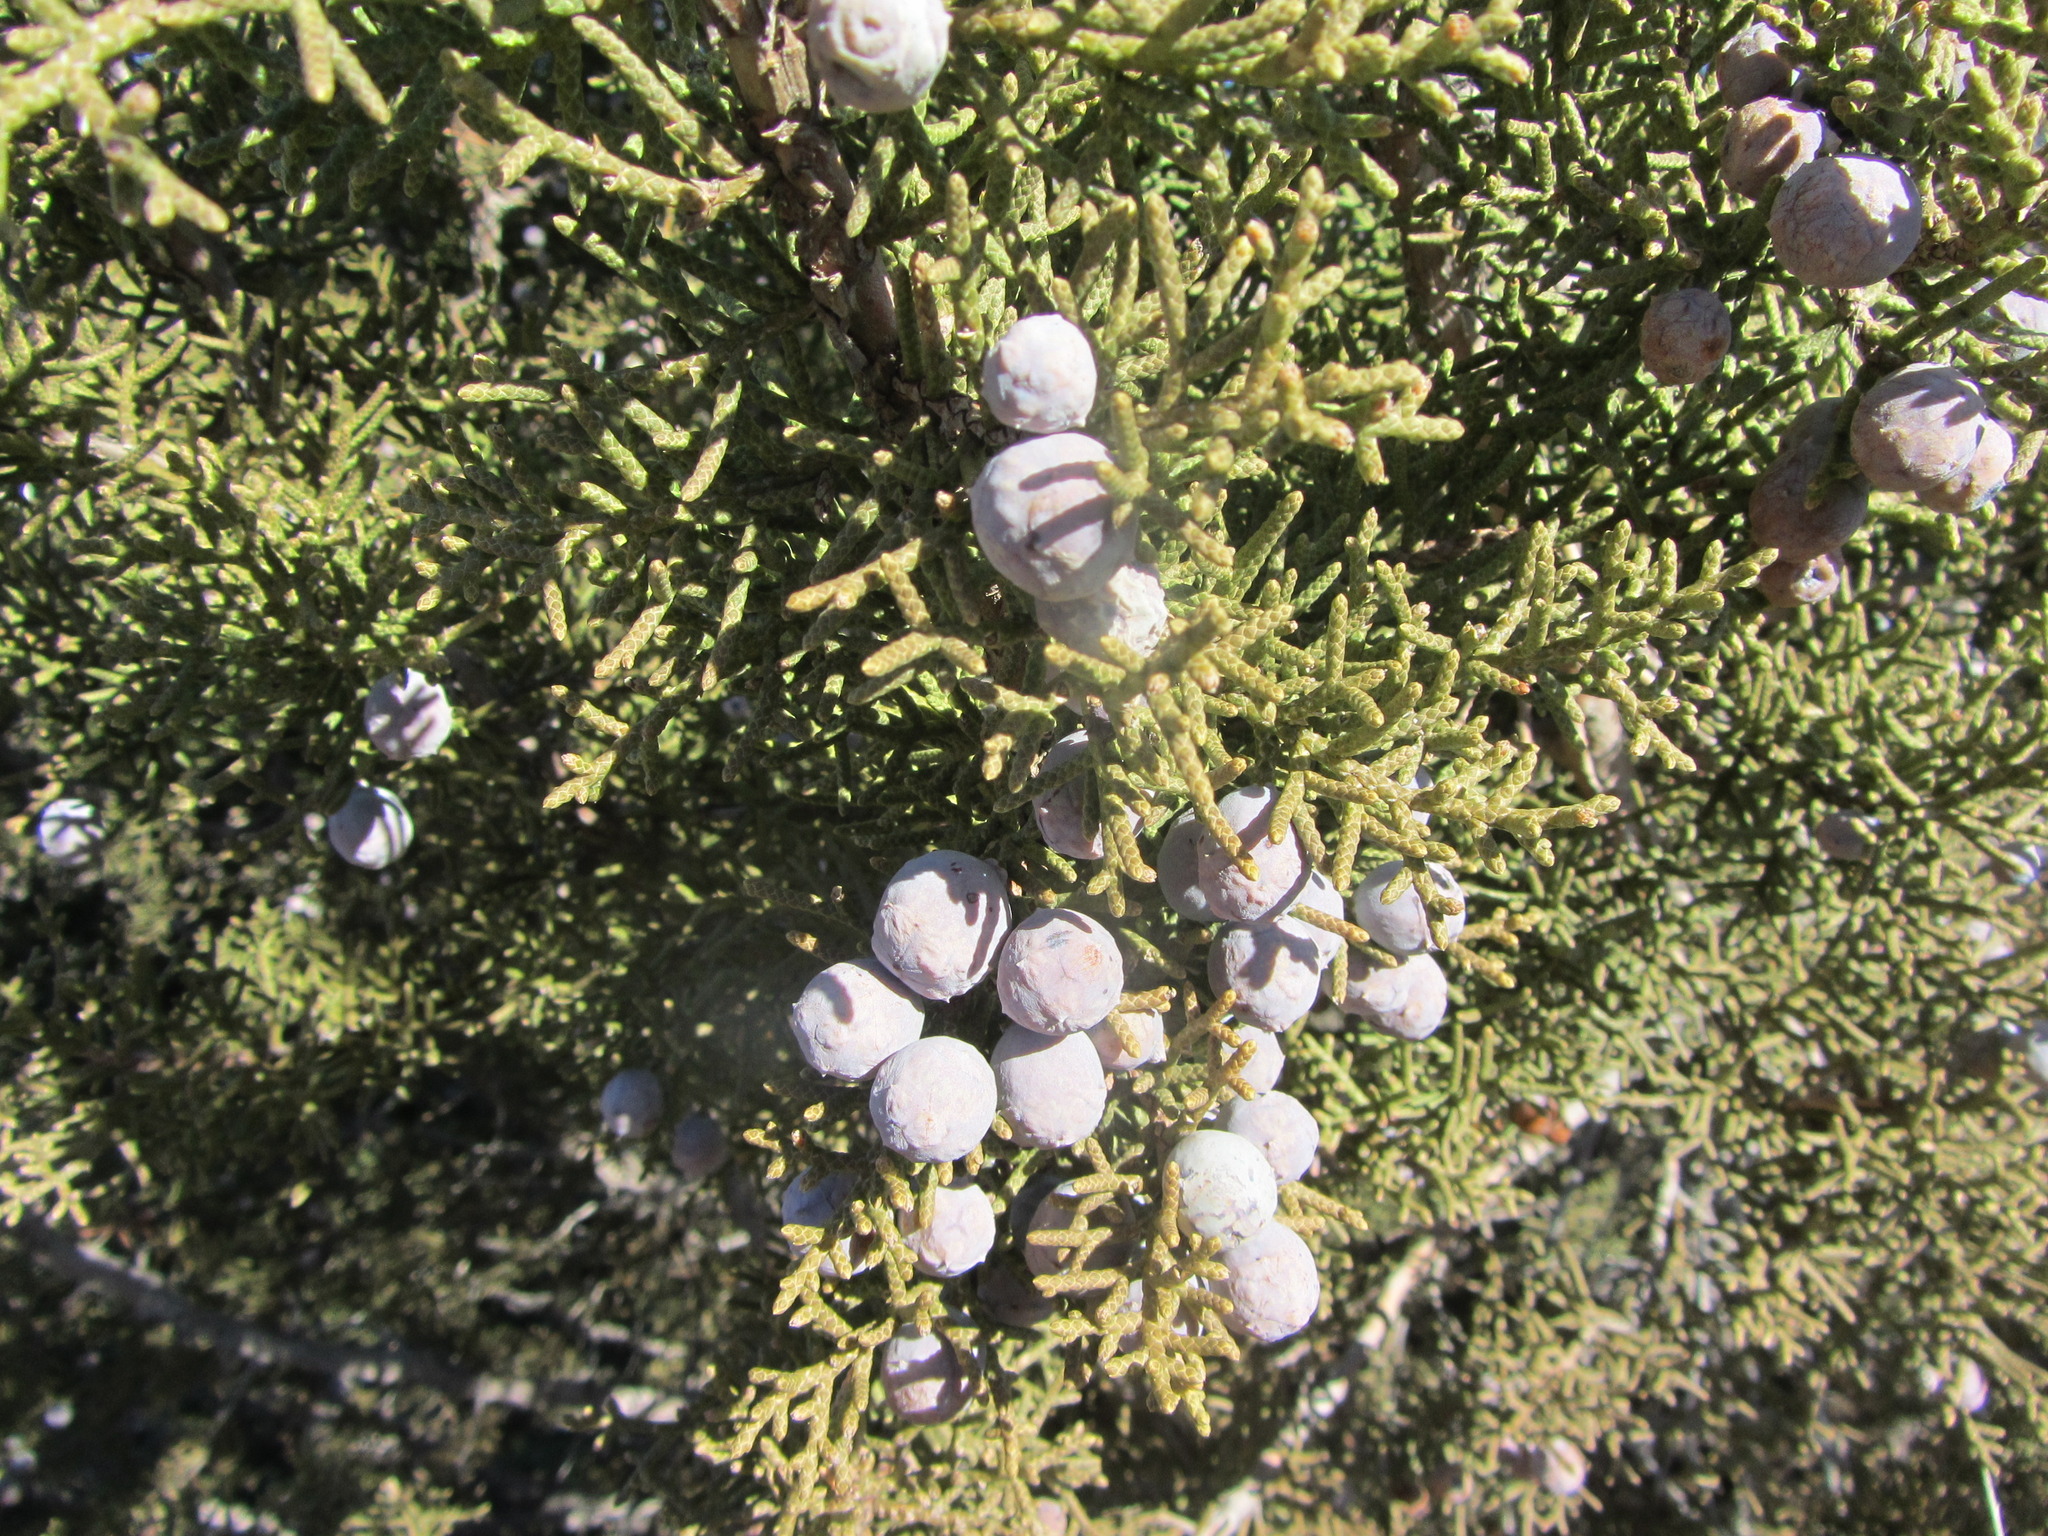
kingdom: Plantae
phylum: Tracheophyta
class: Pinopsida
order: Pinales
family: Cupressaceae
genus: Juniperus
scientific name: Juniperus californica
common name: California juniper
